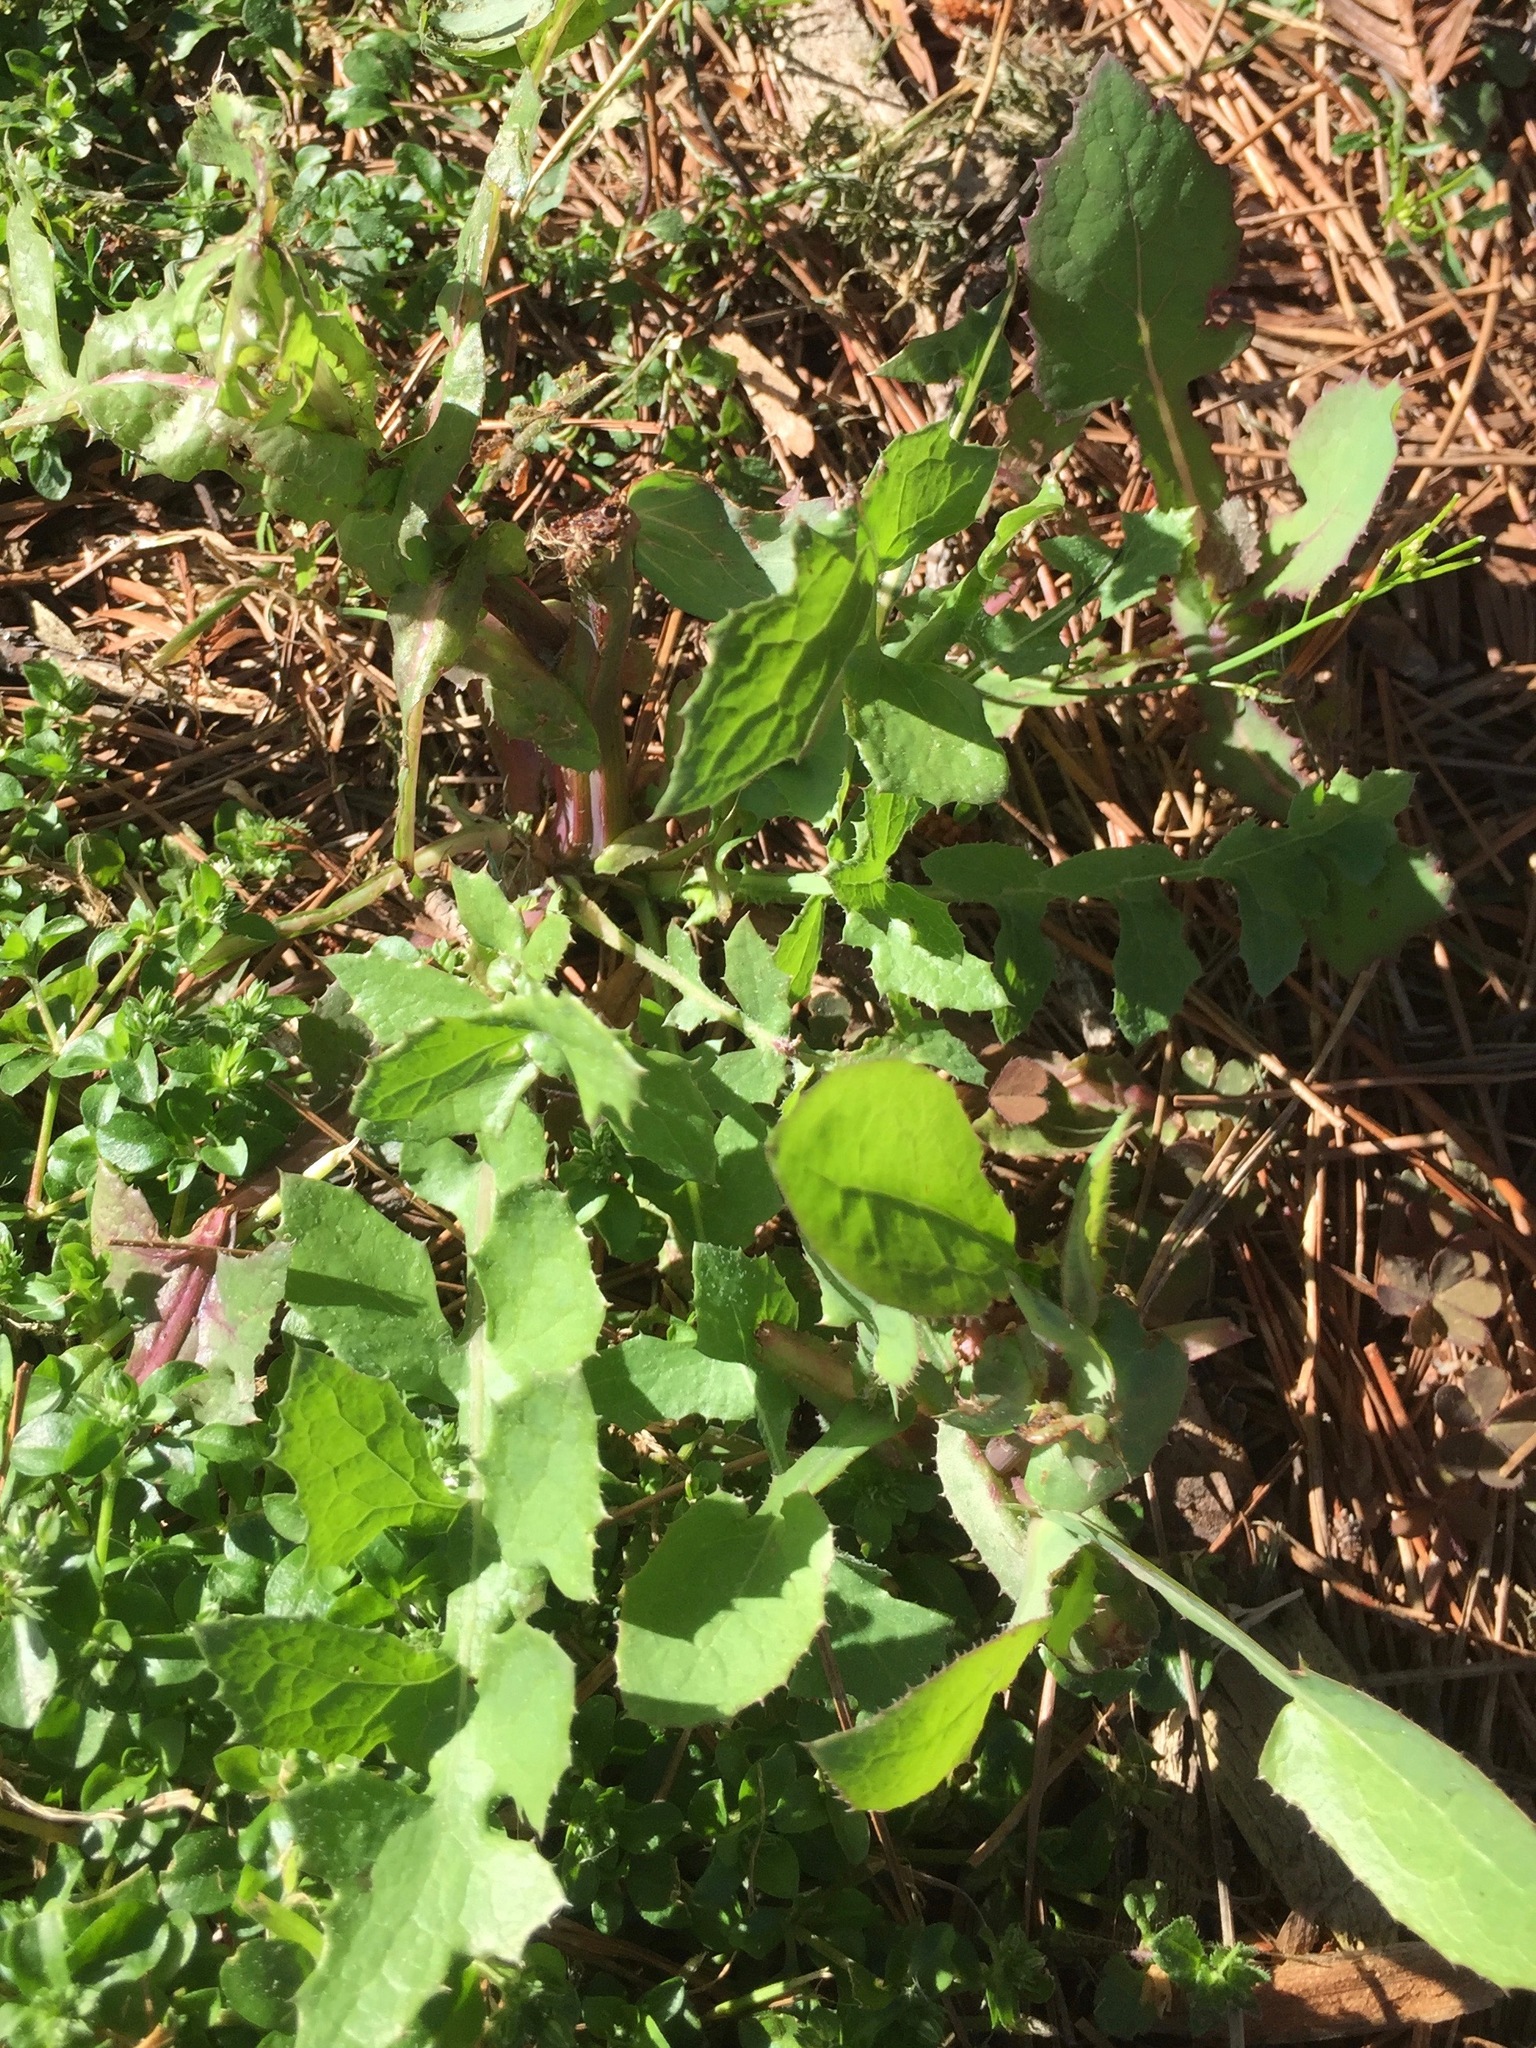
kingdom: Plantae
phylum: Tracheophyta
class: Magnoliopsida
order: Asterales
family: Asteraceae
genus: Sonchus
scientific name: Sonchus oleraceus
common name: Common sowthistle
